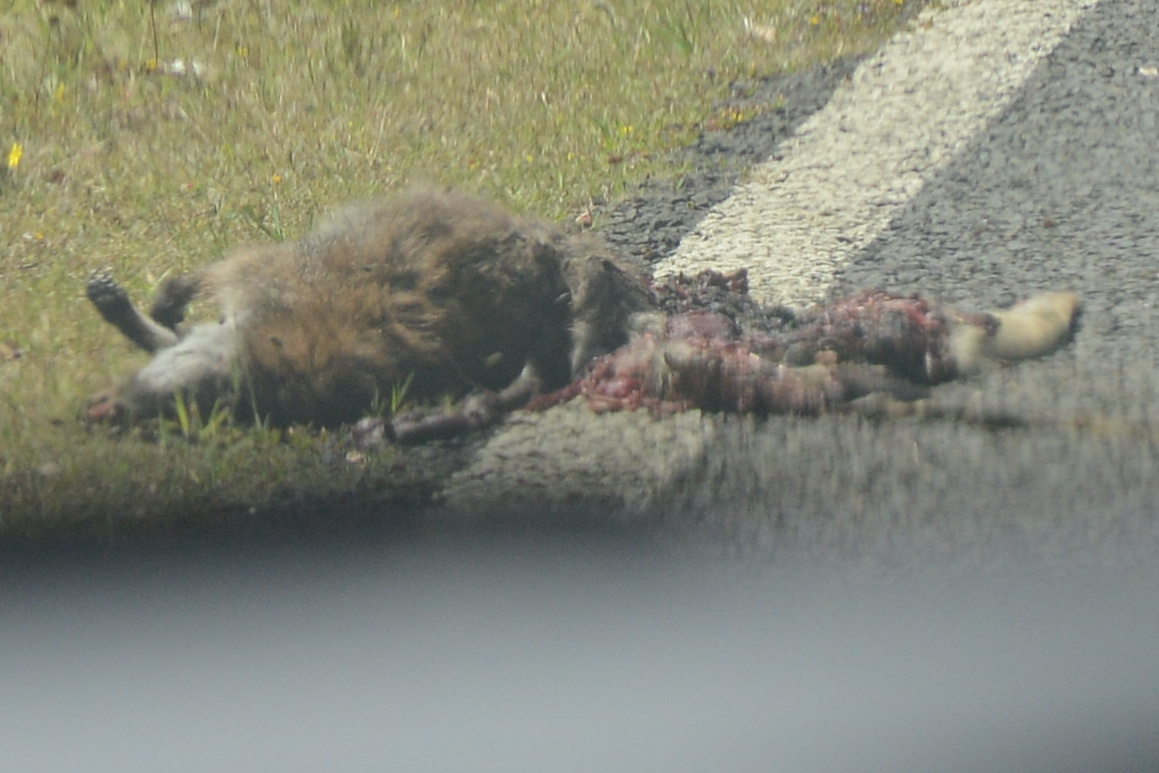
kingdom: Animalia
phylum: Chordata
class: Mammalia
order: Diprotodontia
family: Macropodidae
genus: Notamacropus
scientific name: Notamacropus rufogriseus
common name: Red-necked wallaby
